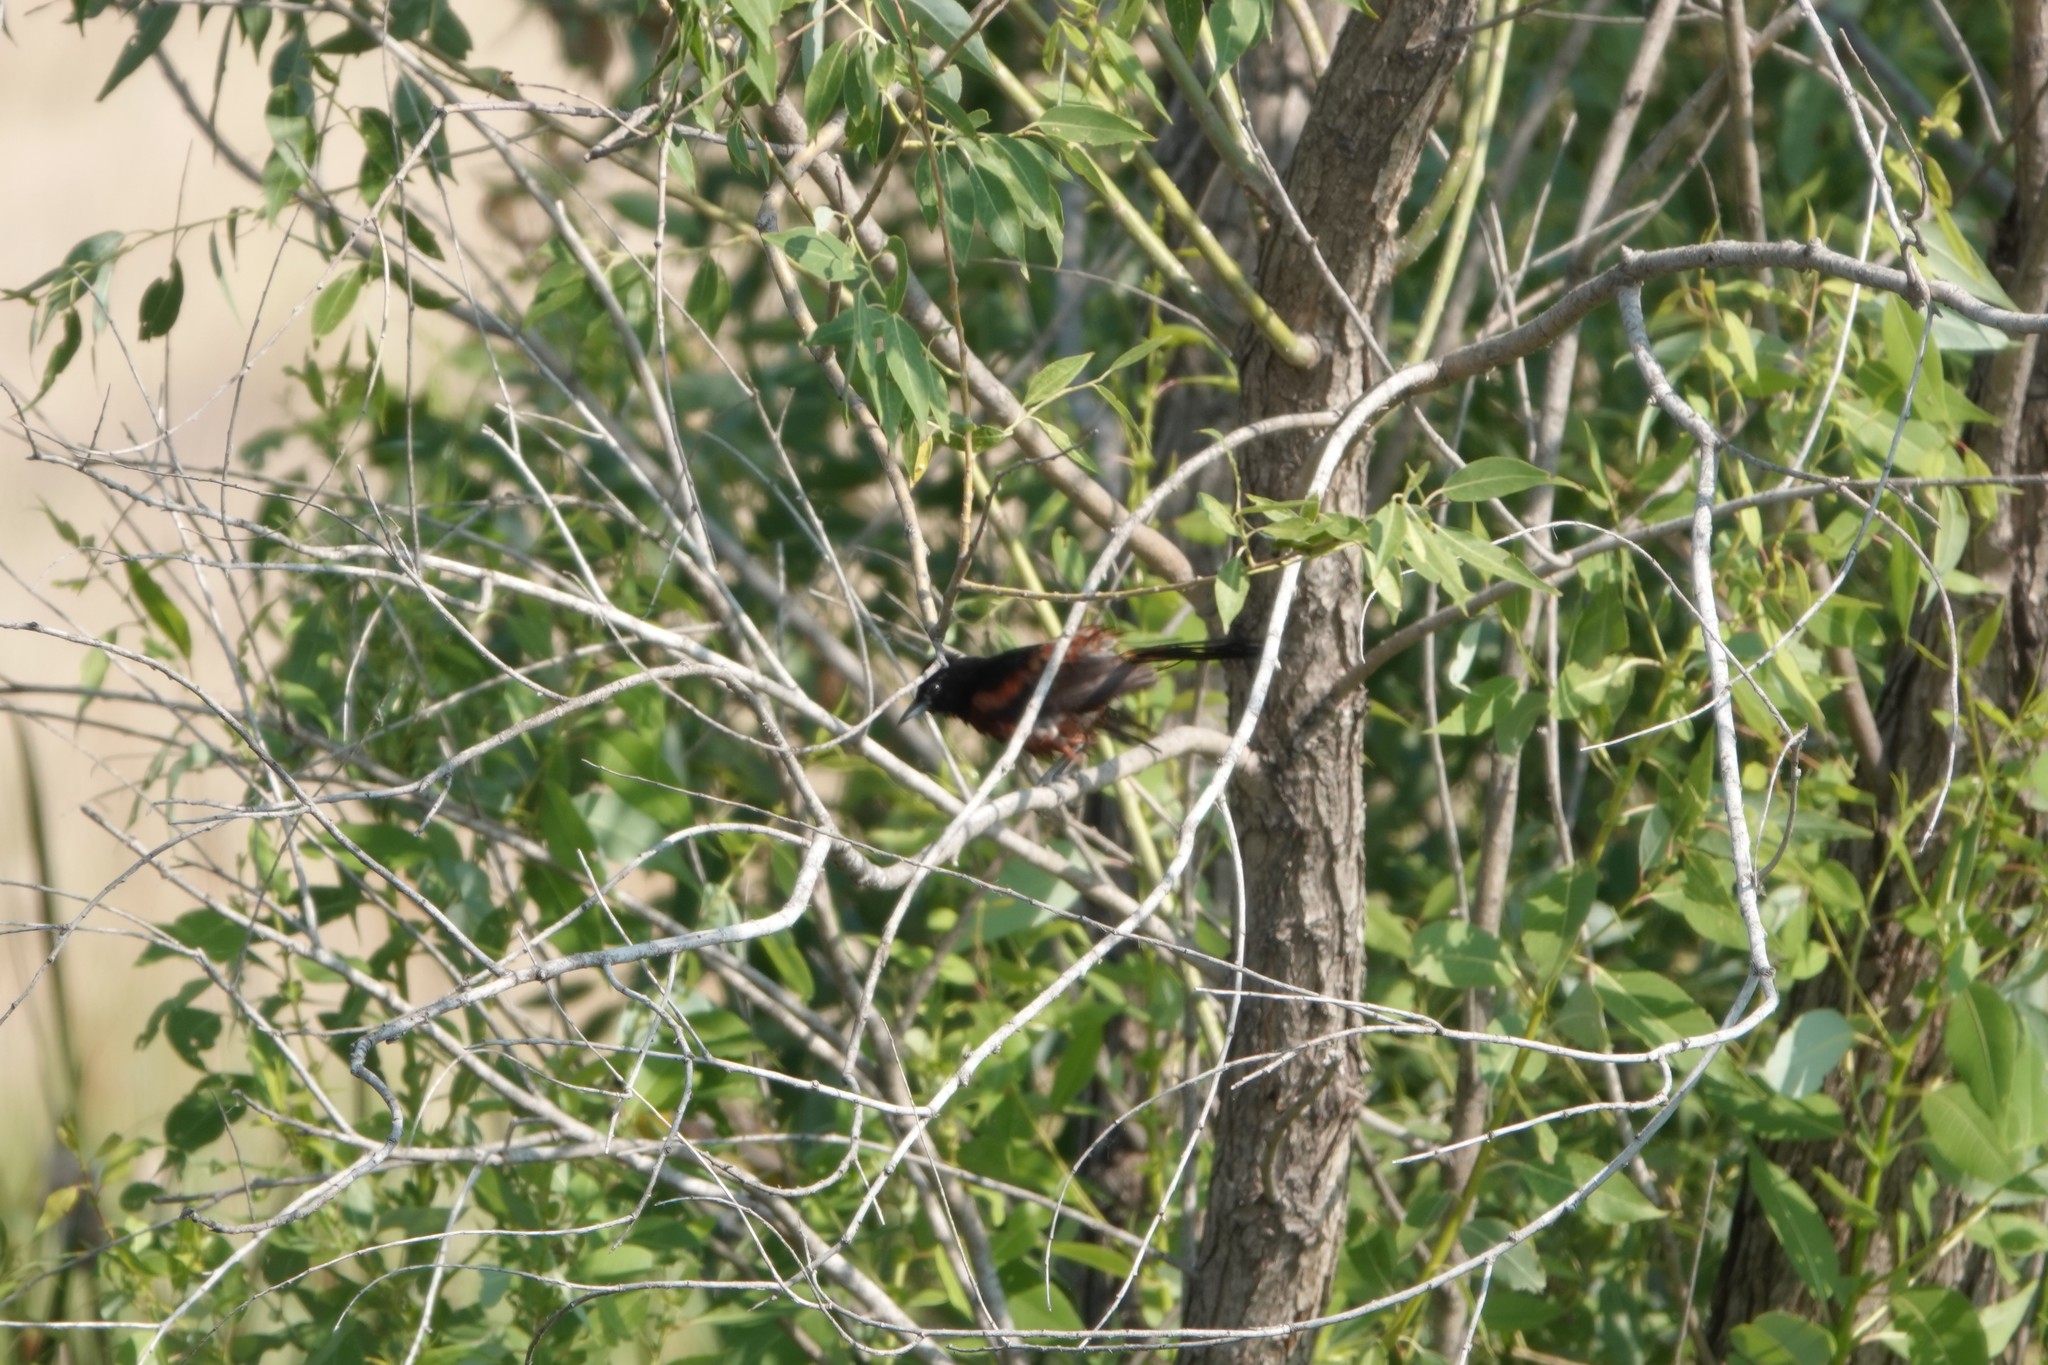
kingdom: Animalia
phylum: Chordata
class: Aves
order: Passeriformes
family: Icteridae
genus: Icterus
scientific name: Icterus spurius
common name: Orchard oriole
